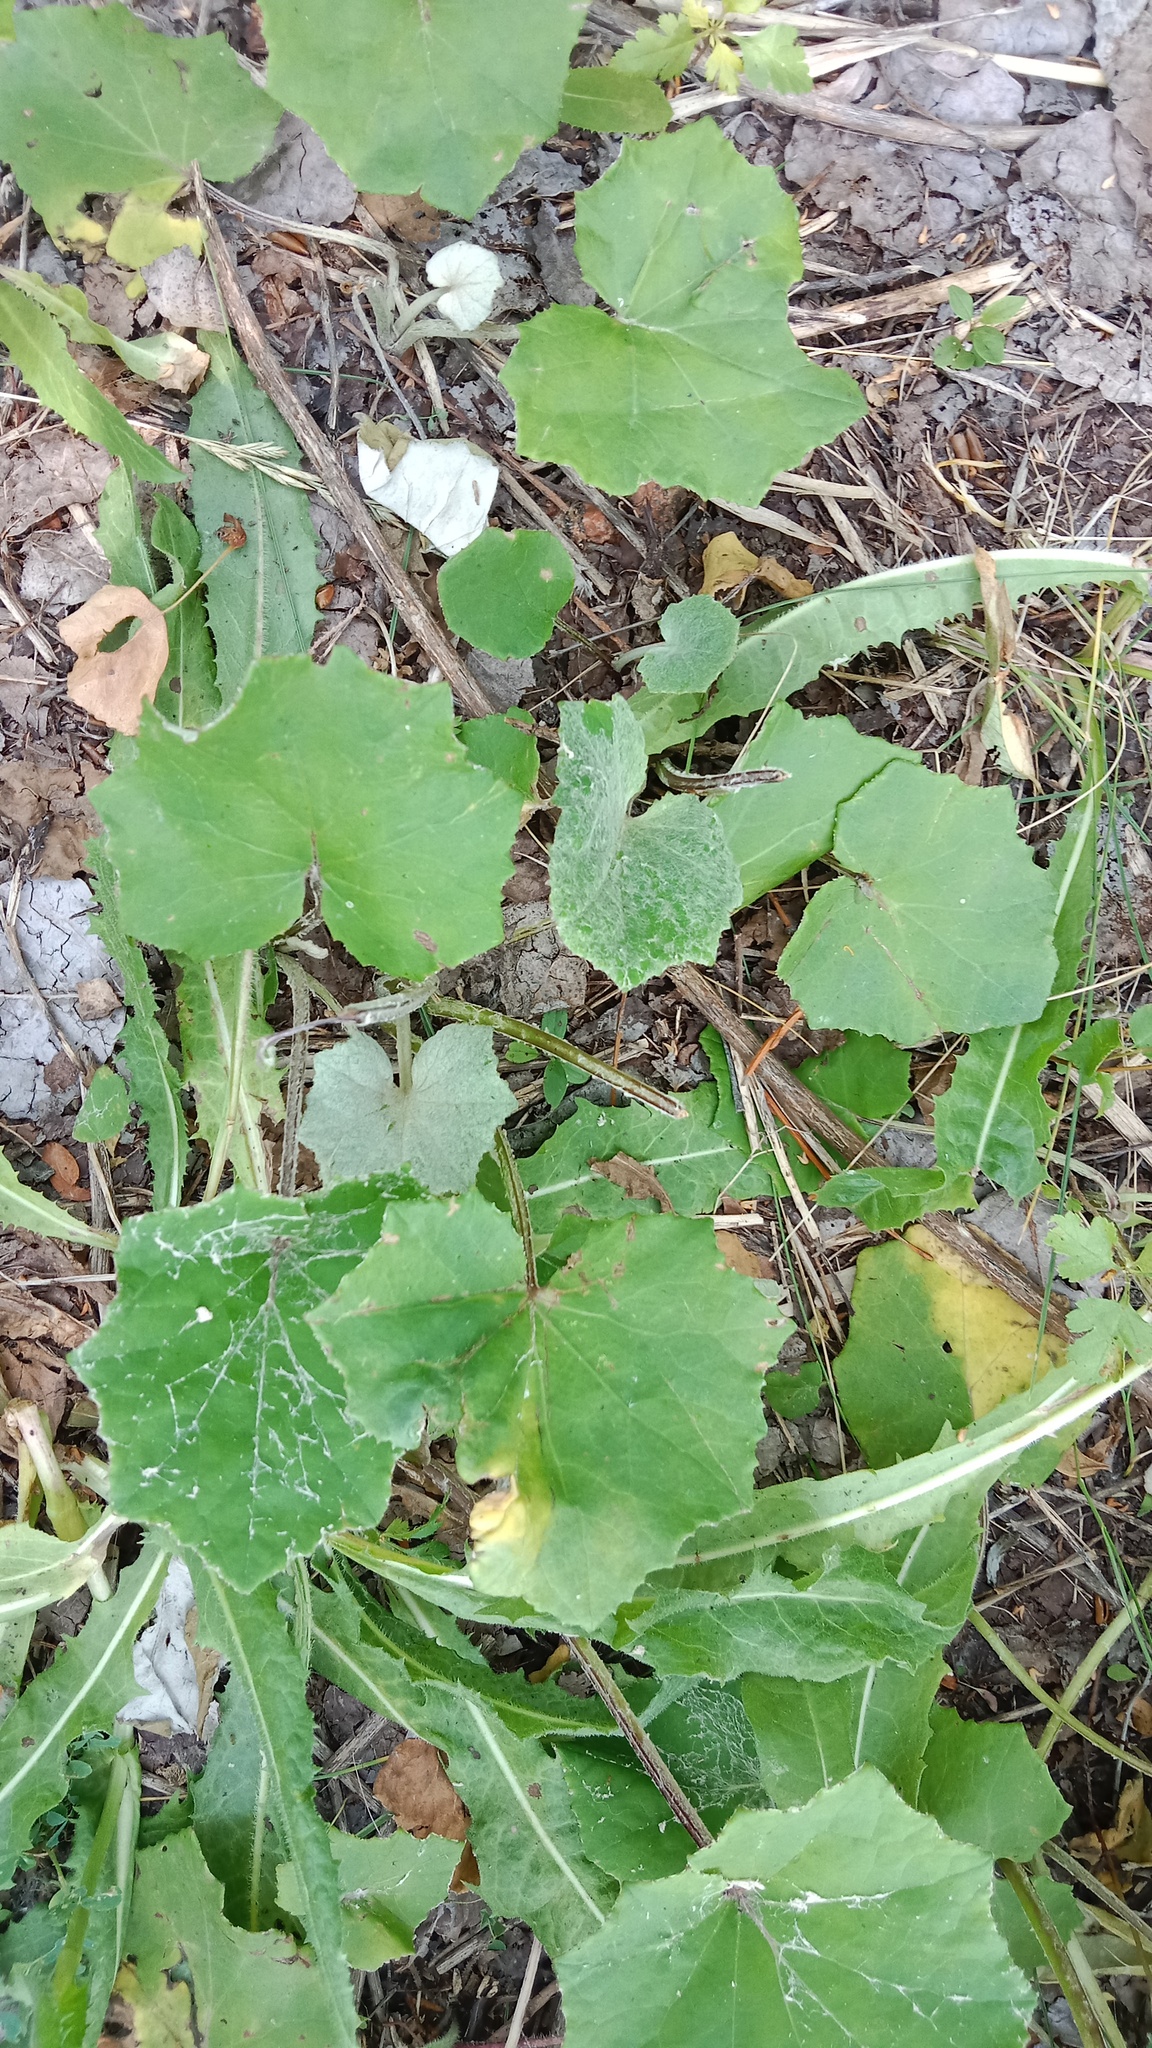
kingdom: Plantae
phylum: Tracheophyta
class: Magnoliopsida
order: Asterales
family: Asteraceae
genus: Tussilago
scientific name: Tussilago farfara
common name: Coltsfoot
